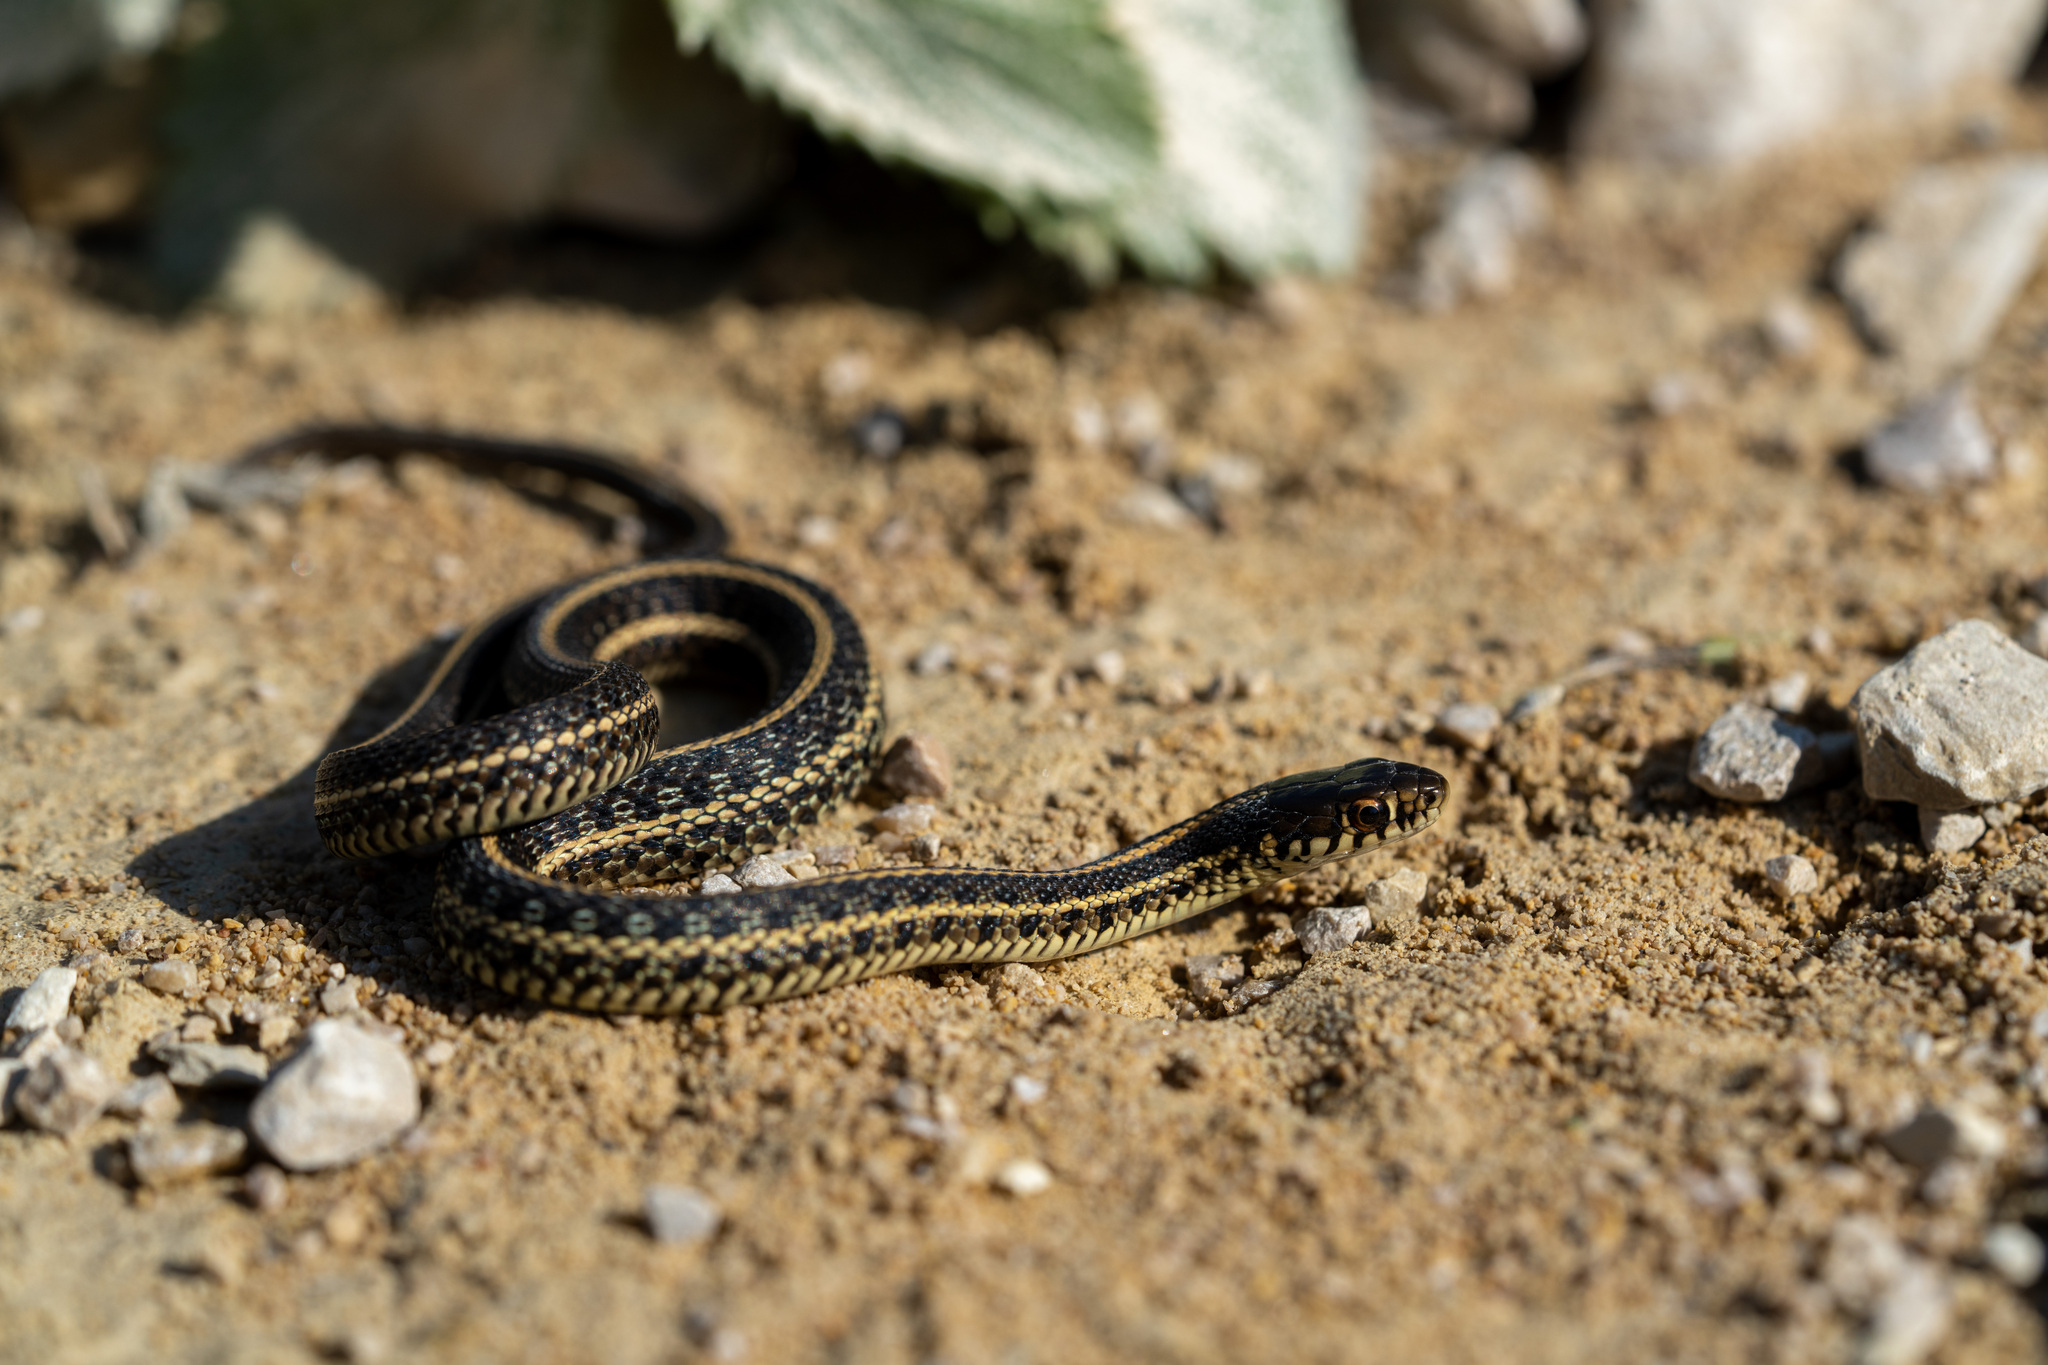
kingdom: Animalia
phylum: Chordata
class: Squamata
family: Colubridae
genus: Thamnophis
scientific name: Thamnophis radix
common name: Plains garter snake
